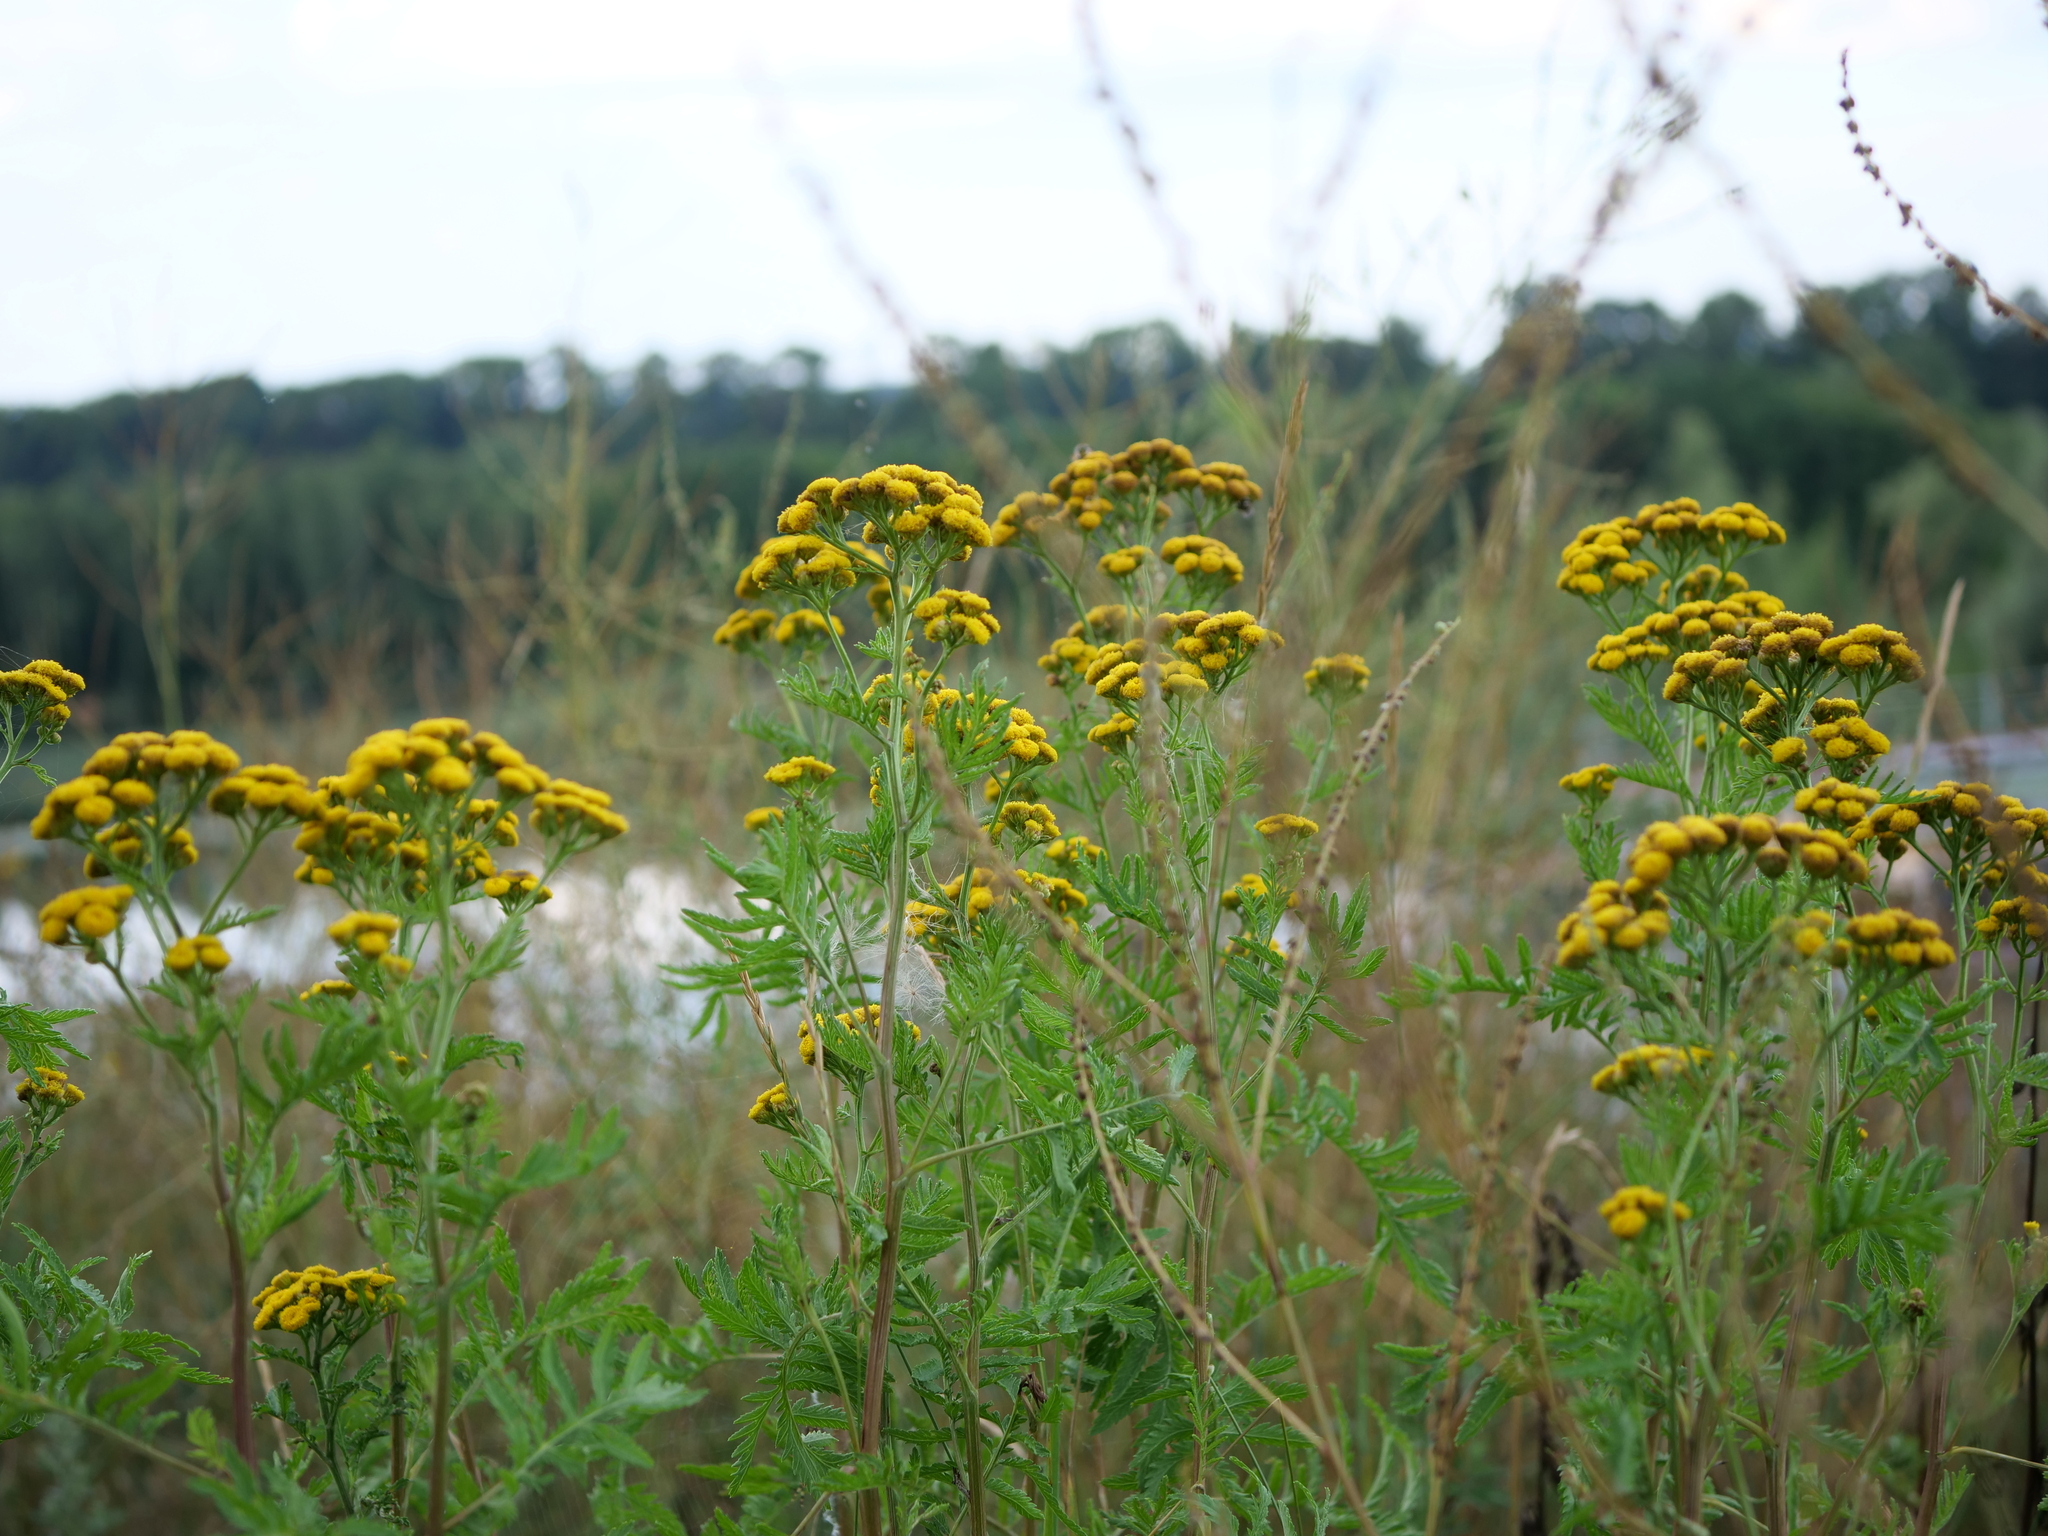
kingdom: Plantae
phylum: Tracheophyta
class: Magnoliopsida
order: Asterales
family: Asteraceae
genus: Tanacetum
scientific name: Tanacetum vulgare
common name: Common tansy
